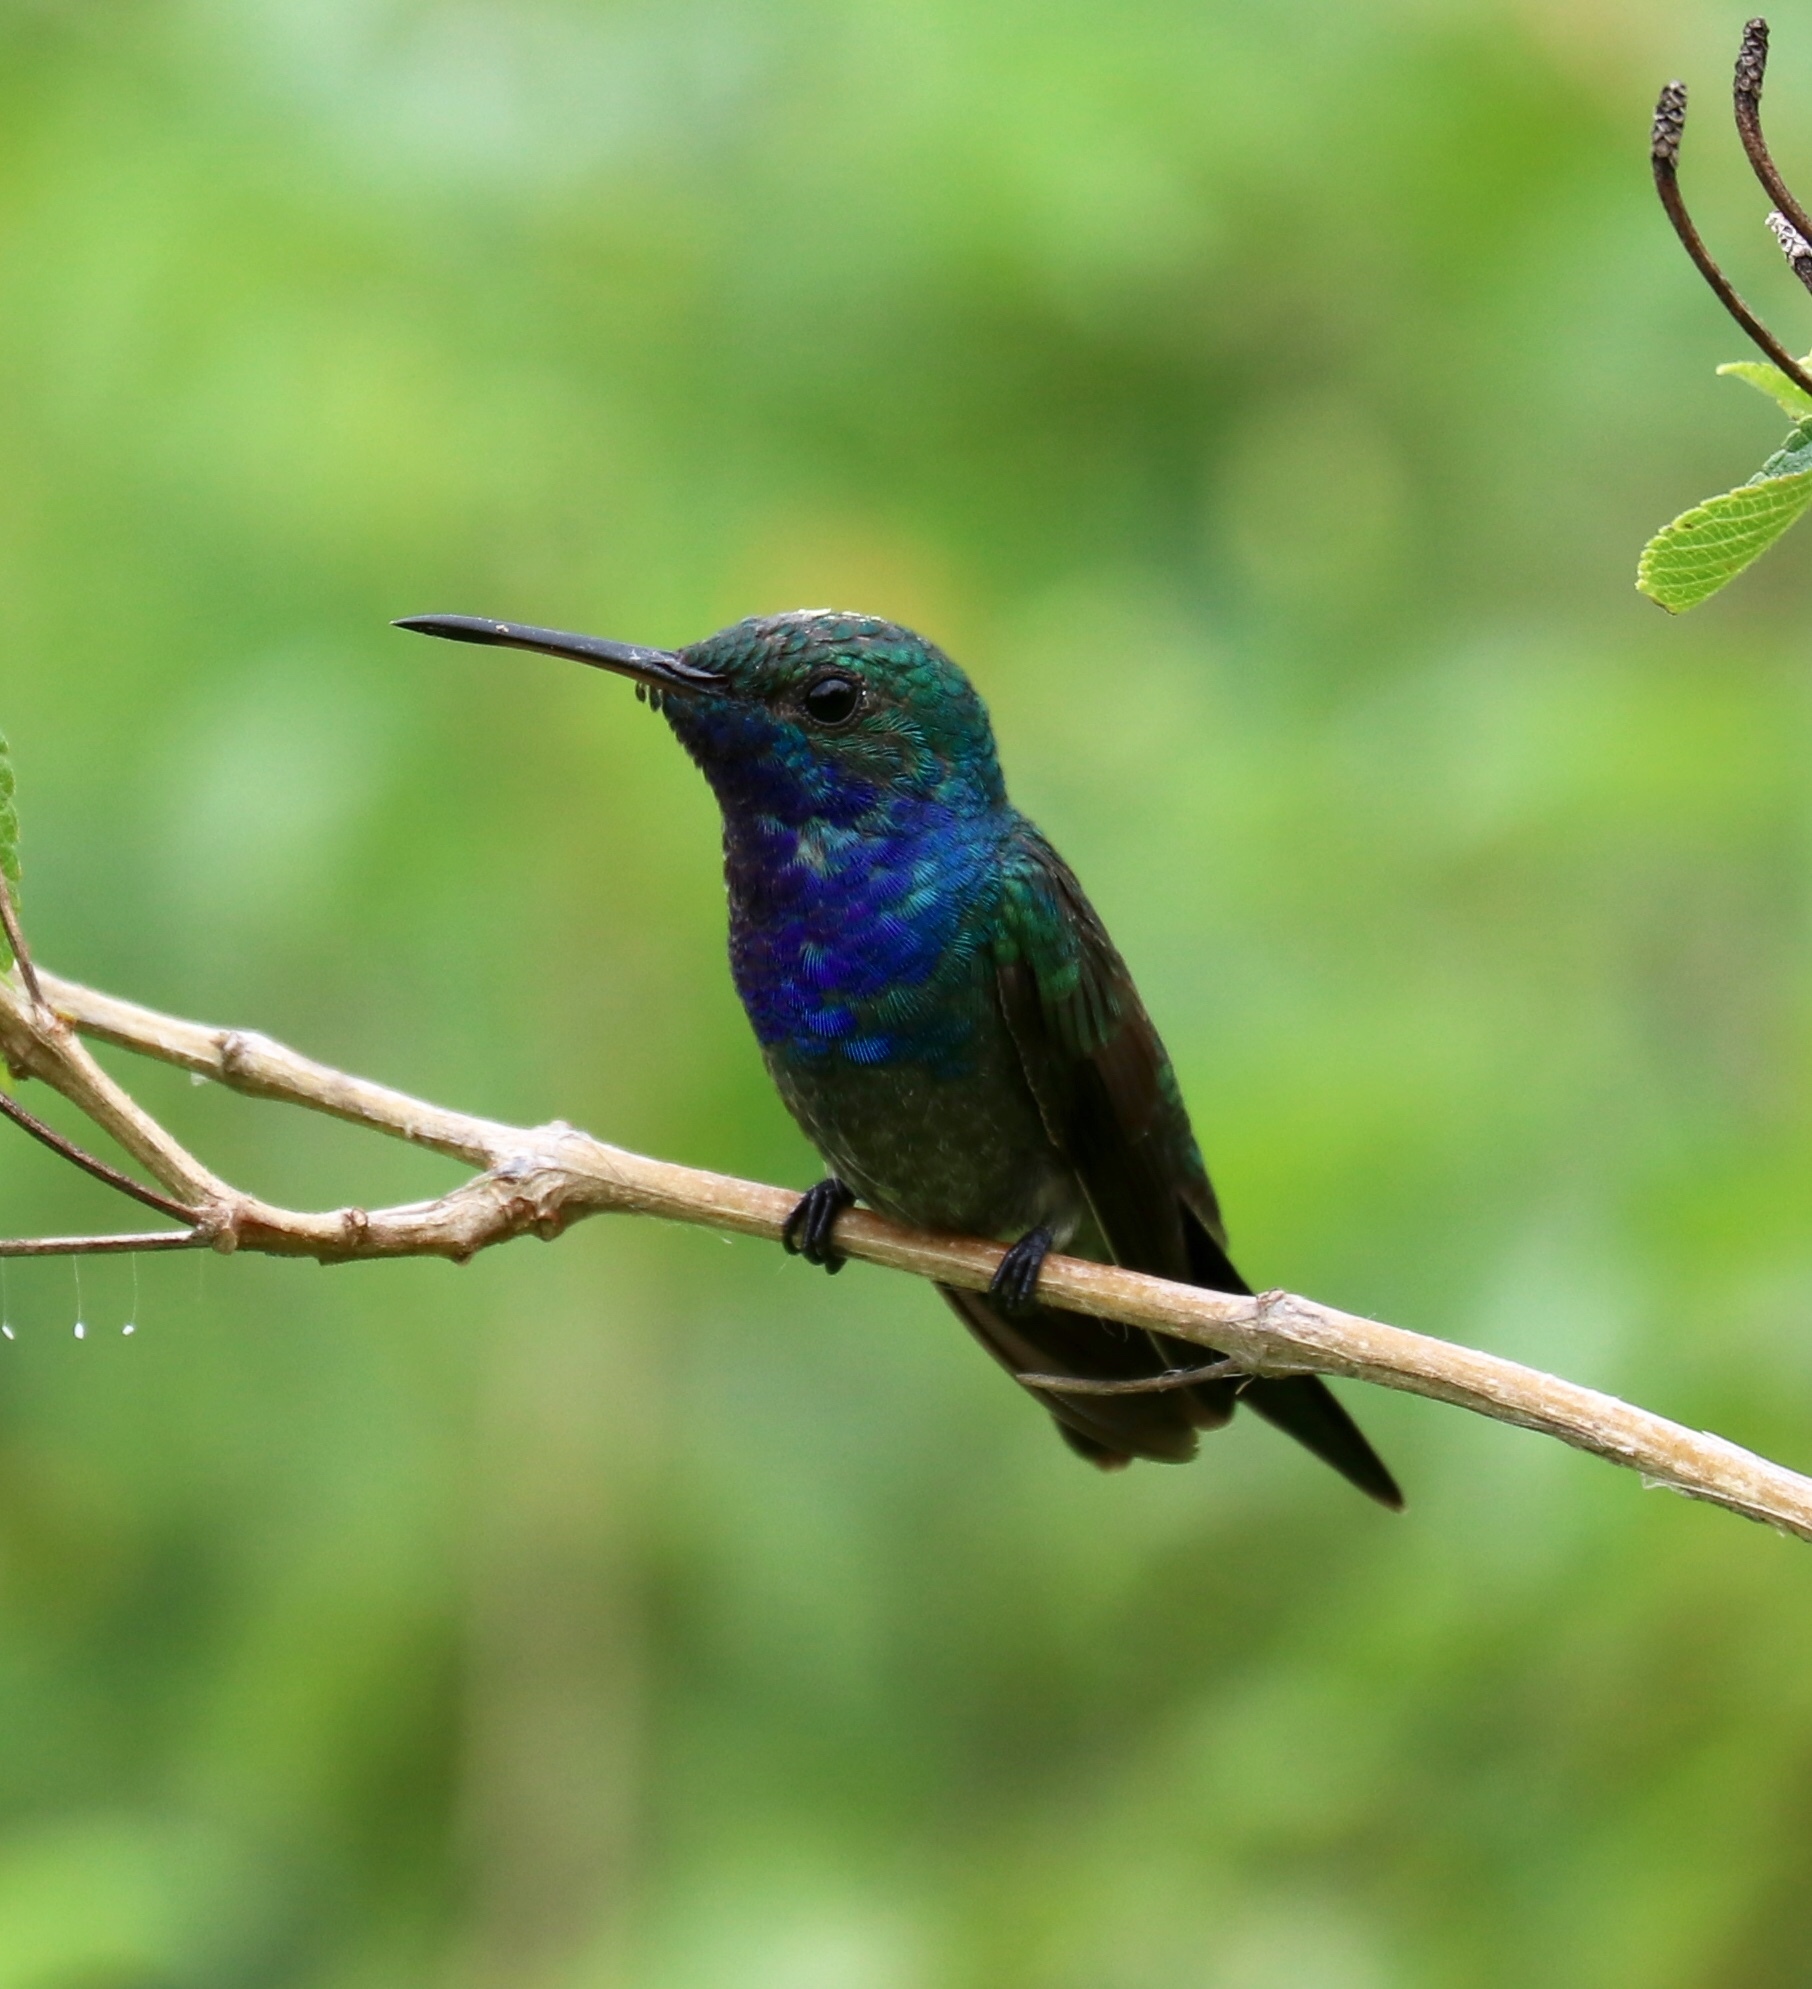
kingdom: Animalia
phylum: Chordata
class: Aves
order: Apodiformes
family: Trochilidae
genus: Chrysuronia
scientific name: Chrysuronia coeruleogularis
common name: Sapphire-throated hummingbird
